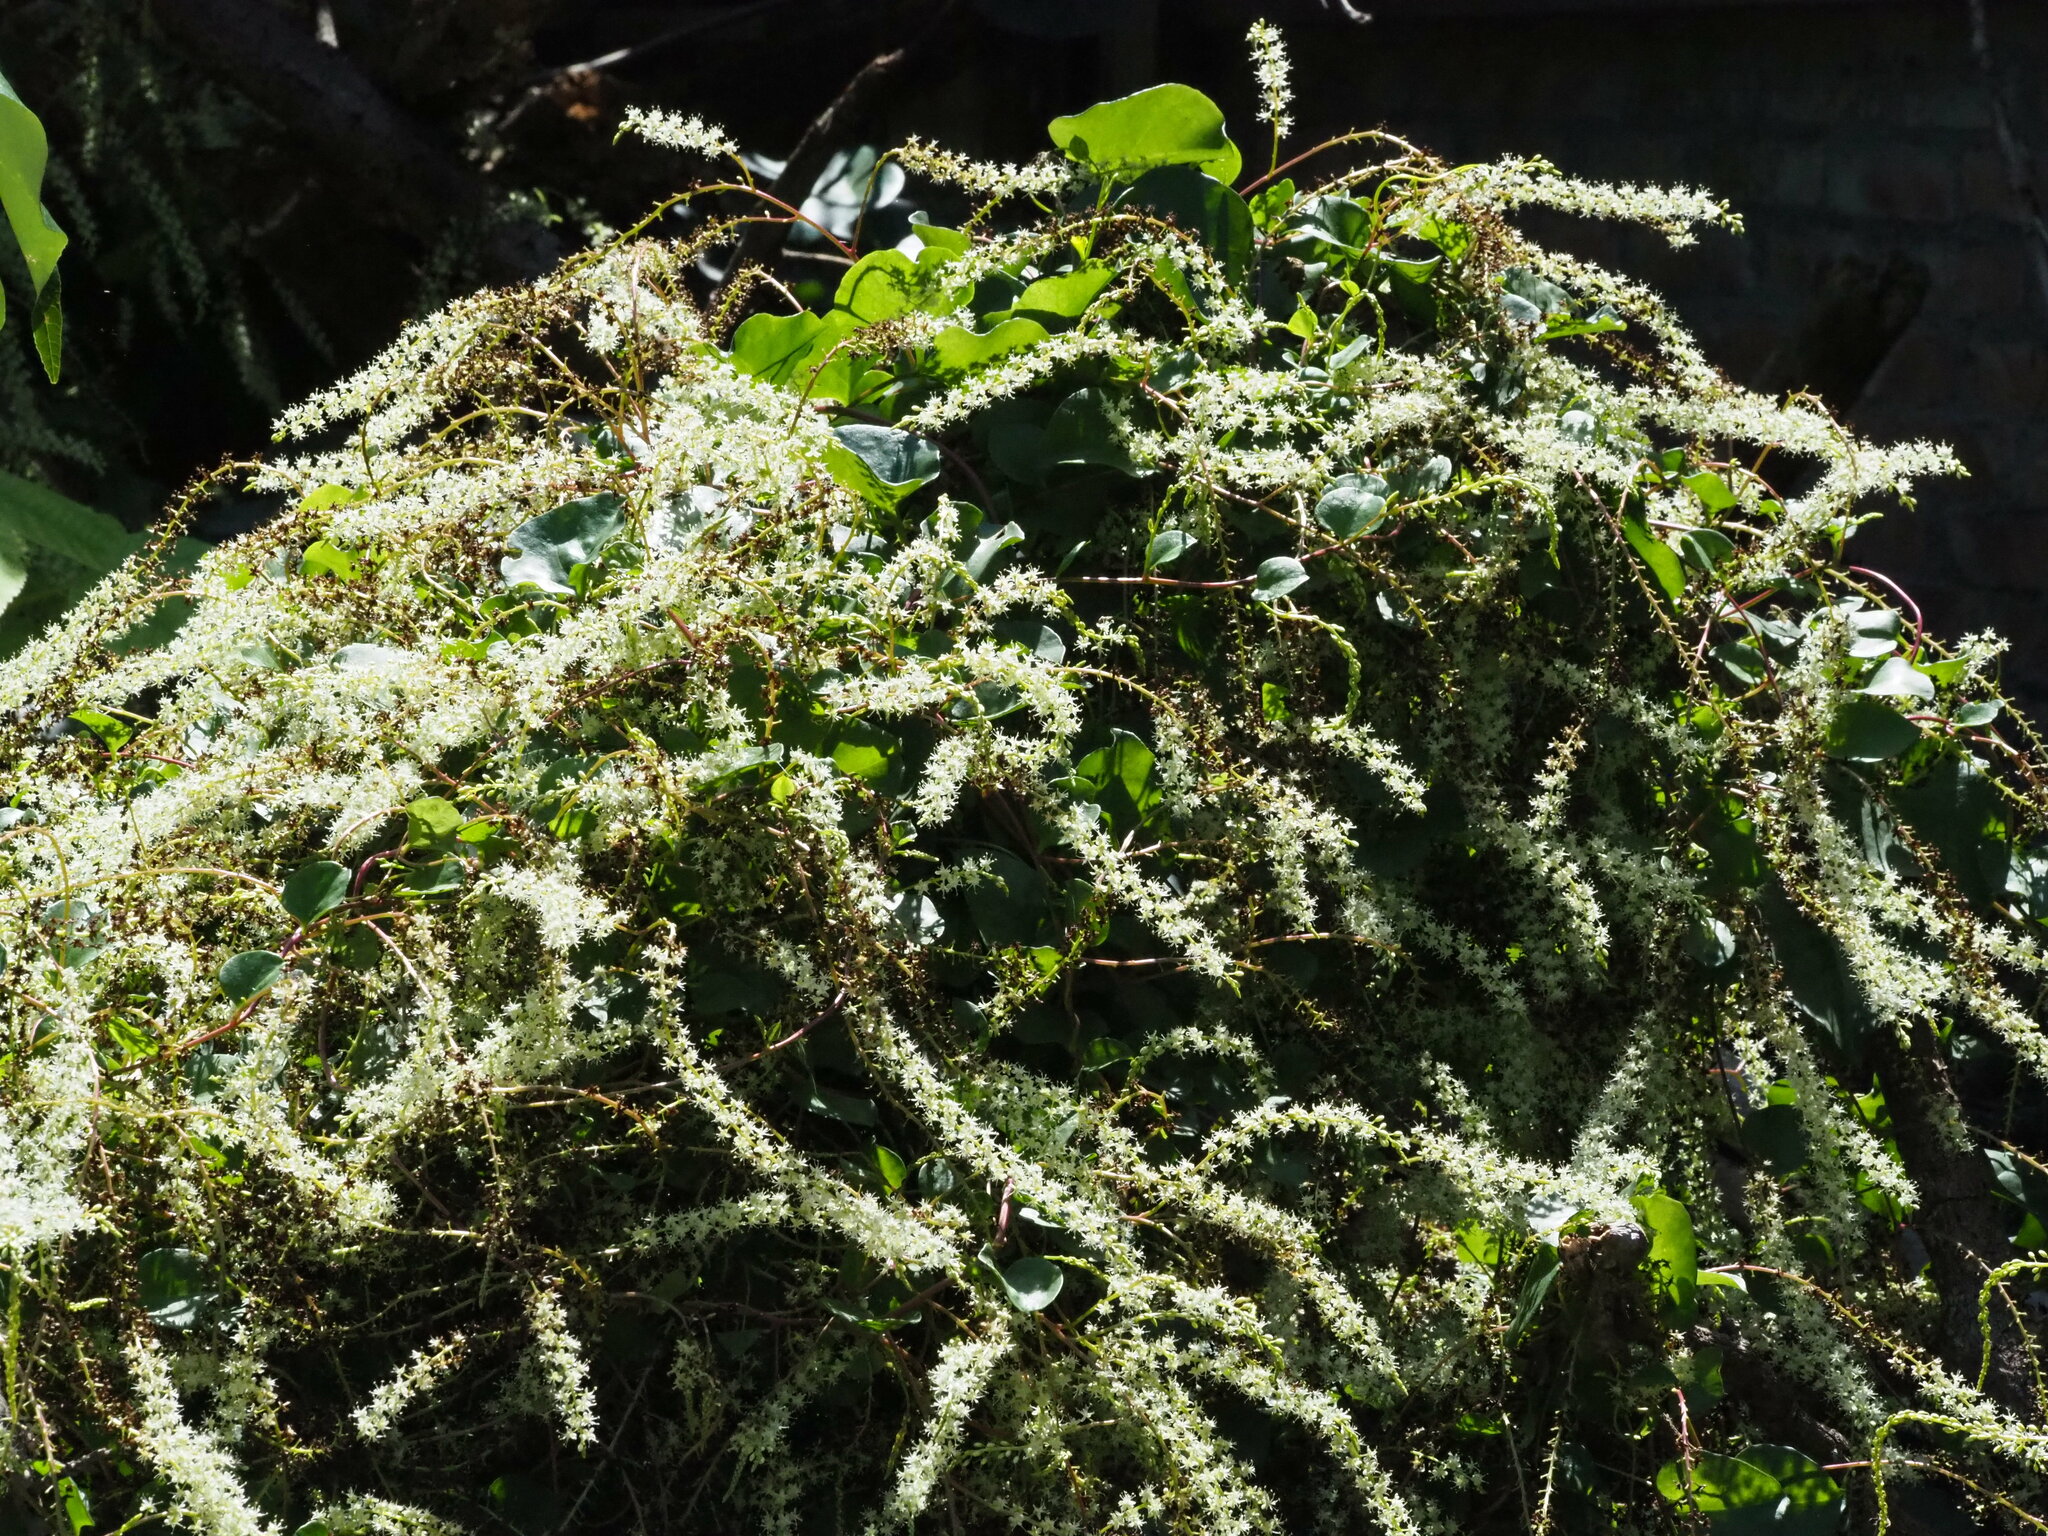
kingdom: Plantae
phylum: Tracheophyta
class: Magnoliopsida
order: Caryophyllales
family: Basellaceae
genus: Anredera
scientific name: Anredera cordifolia
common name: Heartleaf madeiravine
